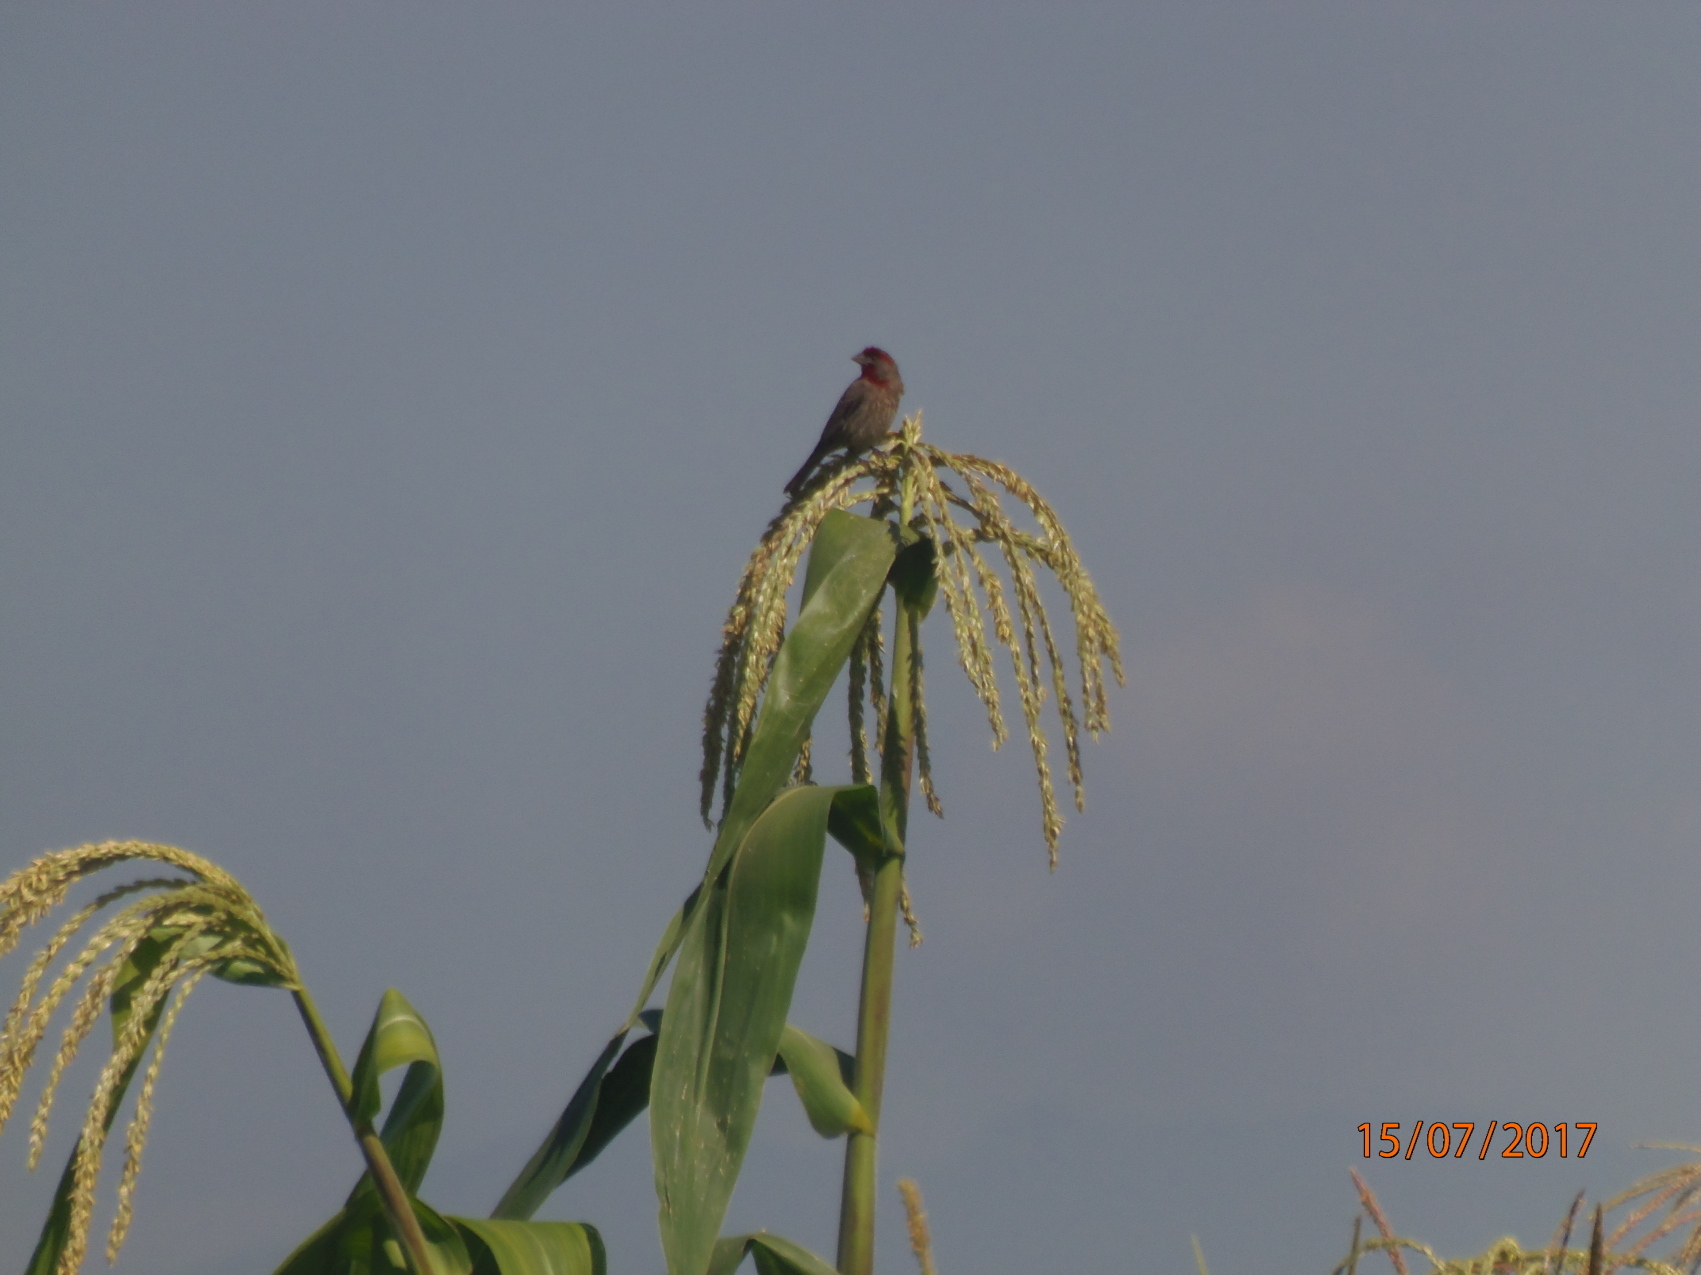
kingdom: Animalia
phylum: Chordata
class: Aves
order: Passeriformes
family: Fringillidae
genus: Haemorhous
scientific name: Haemorhous mexicanus
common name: House finch
